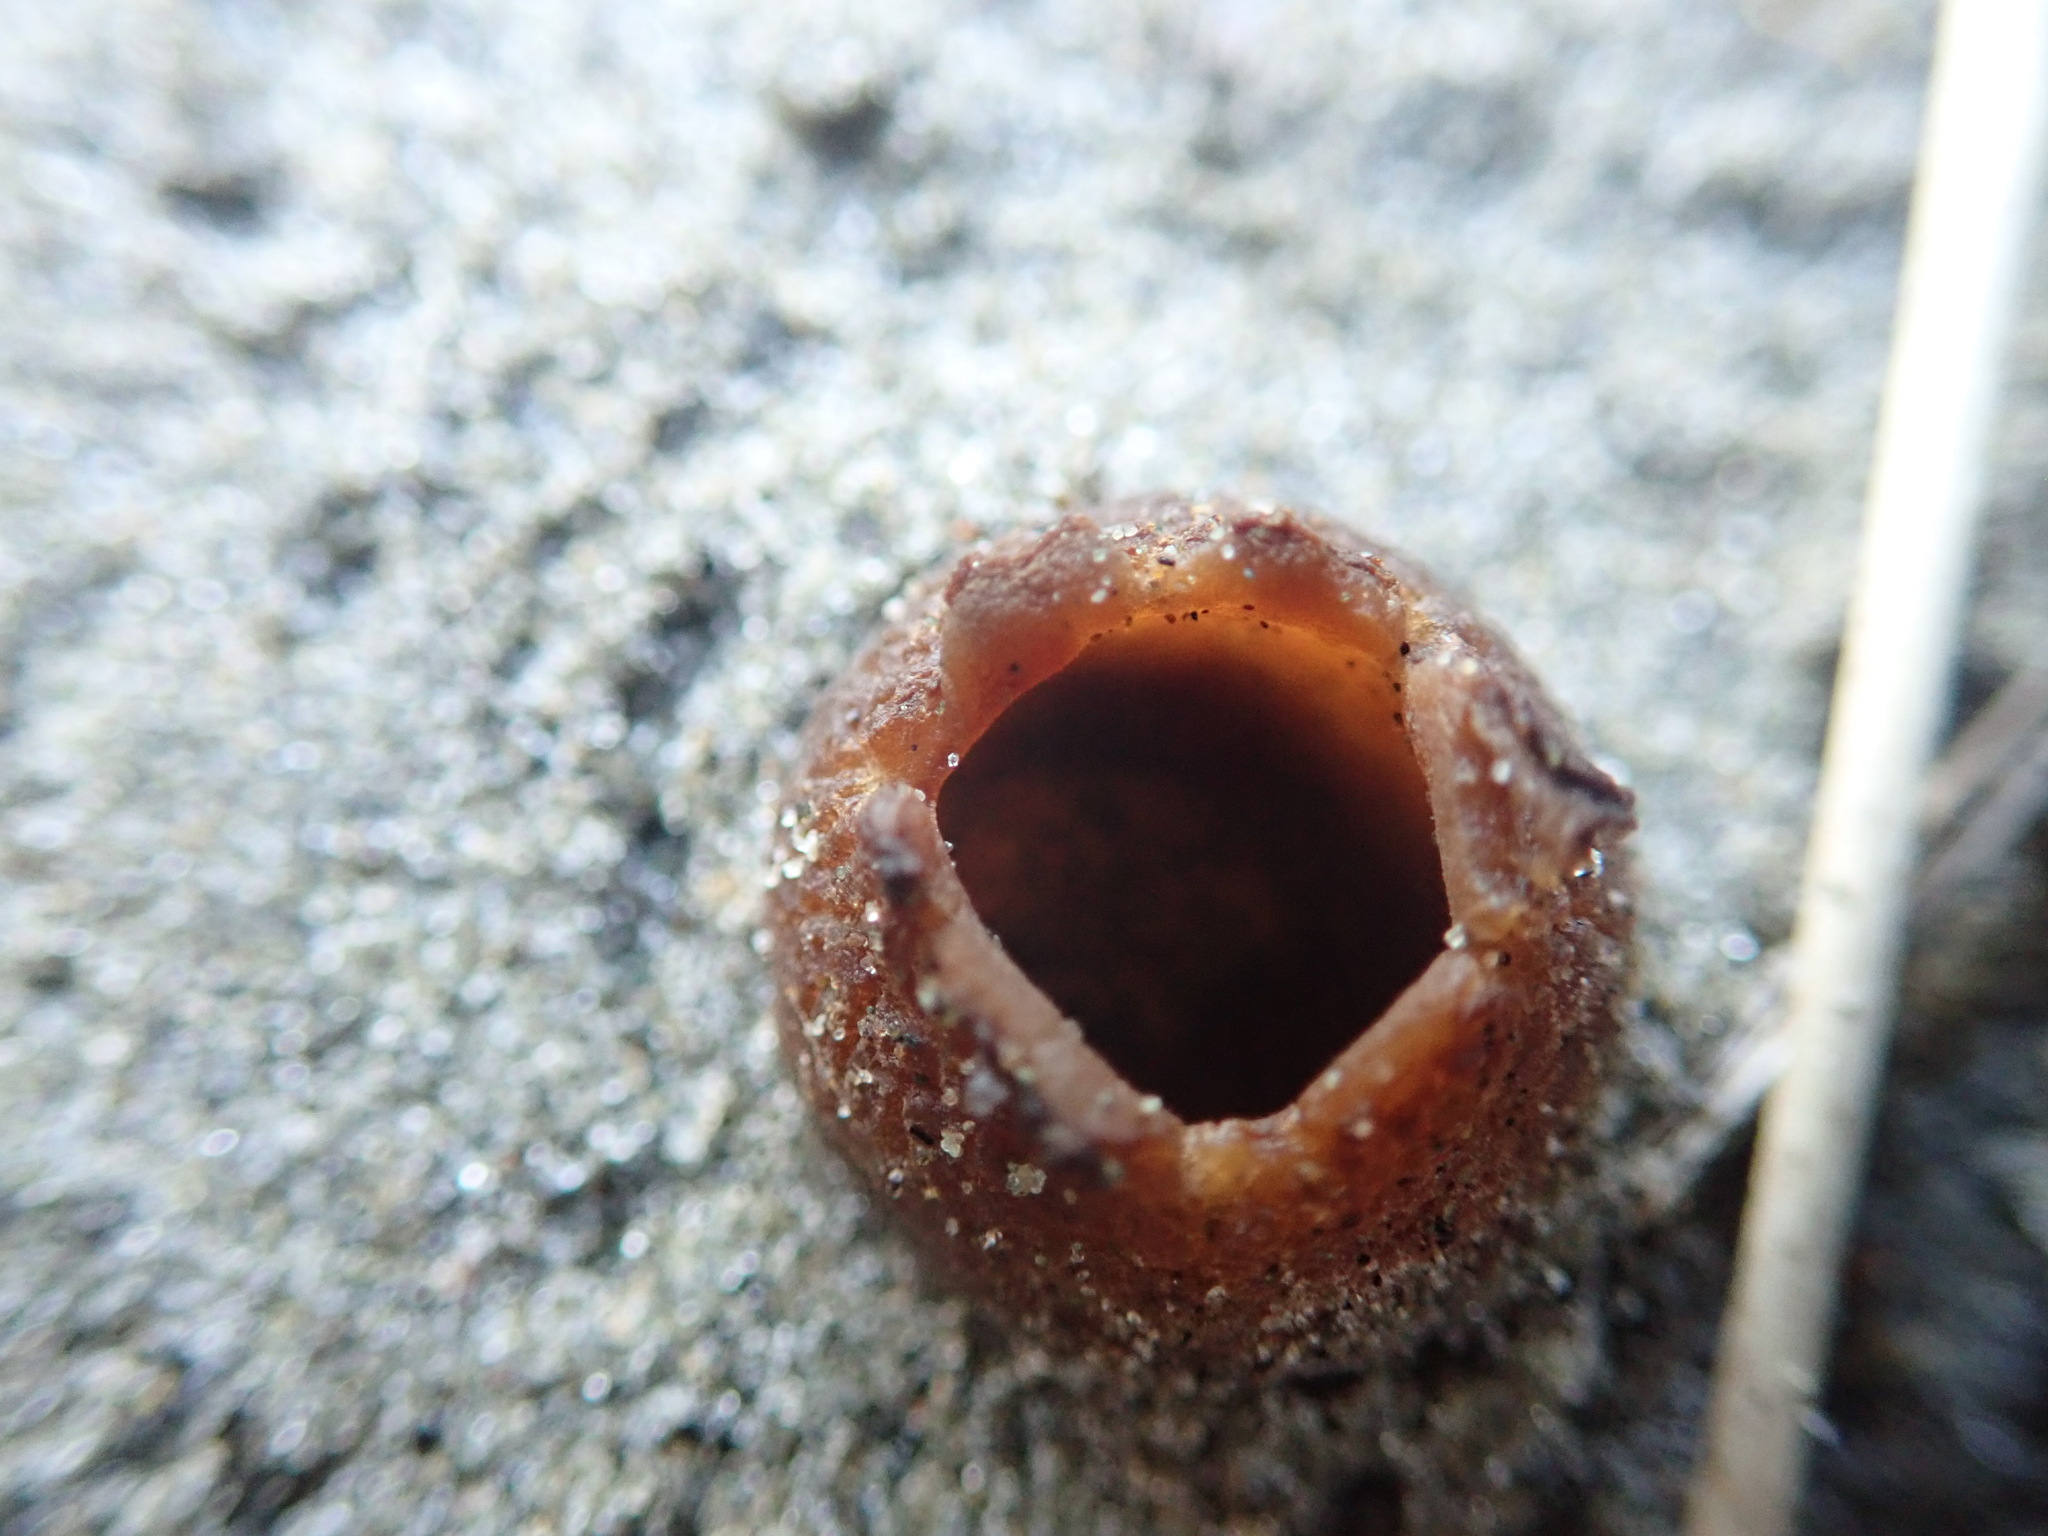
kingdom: Fungi
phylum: Ascomycota
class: Pezizomycetes
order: Pezizales
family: Pezizaceae
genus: Peziza
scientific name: Peziza oceanica
